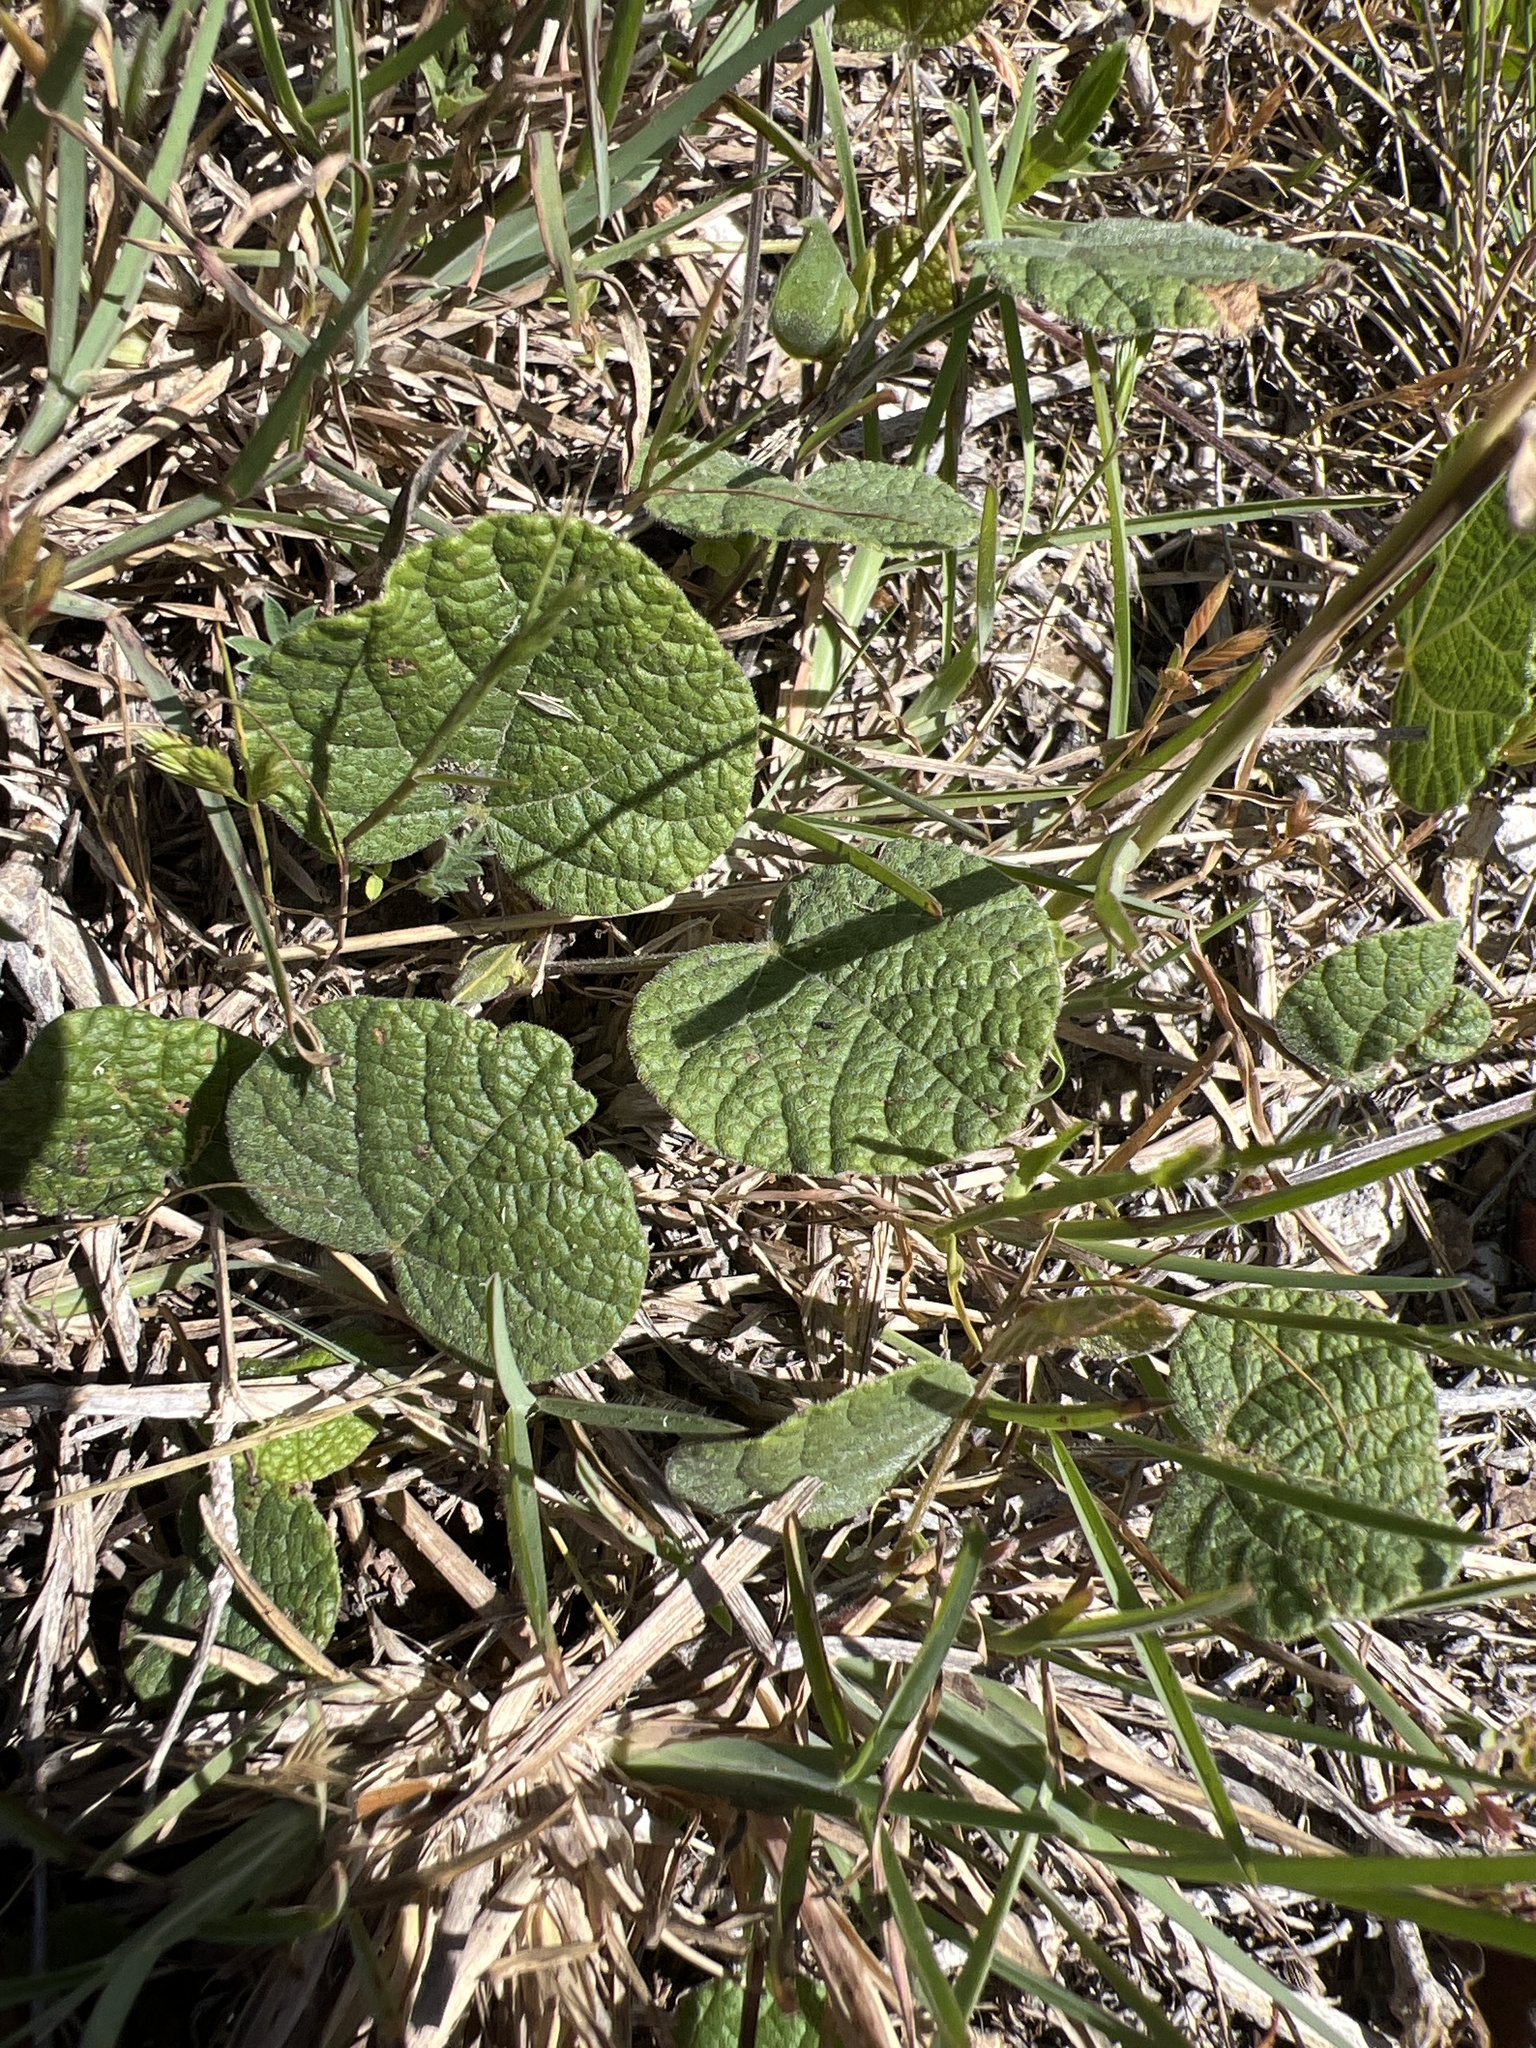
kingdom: Plantae
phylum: Tracheophyta
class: Magnoliopsida
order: Fabales
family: Fabaceae
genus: Rhynchosia
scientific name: Rhynchosia americana
